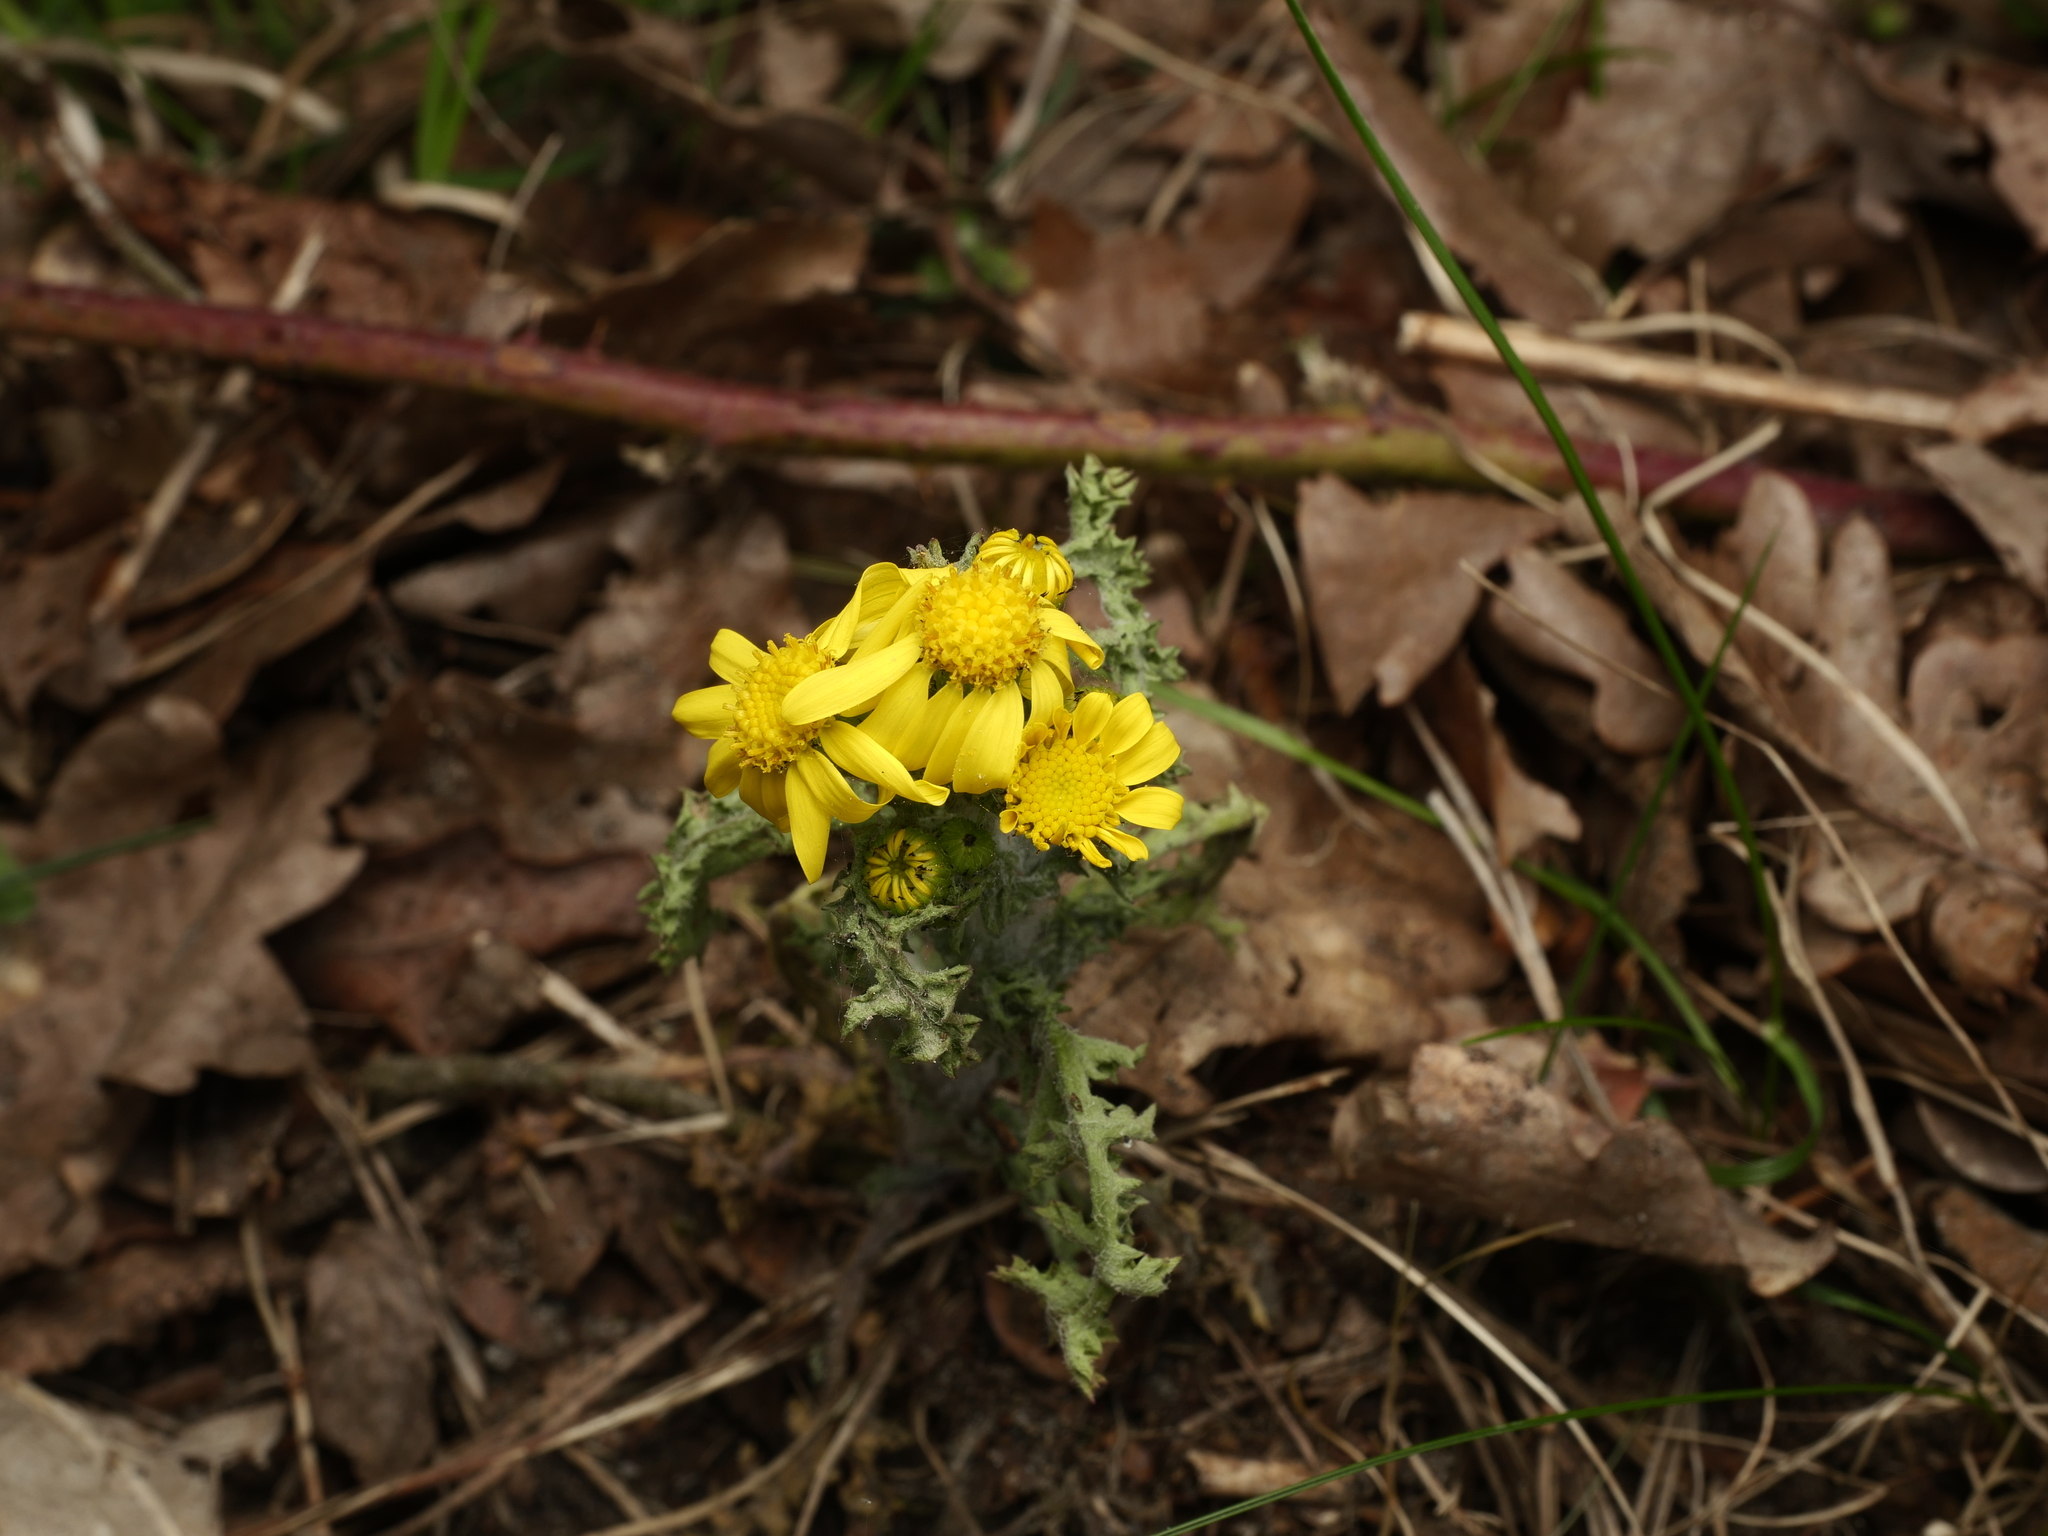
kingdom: Plantae
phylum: Tracheophyta
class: Magnoliopsida
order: Asterales
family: Asteraceae
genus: Senecio
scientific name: Senecio vernalis
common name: Eastern groundsel
